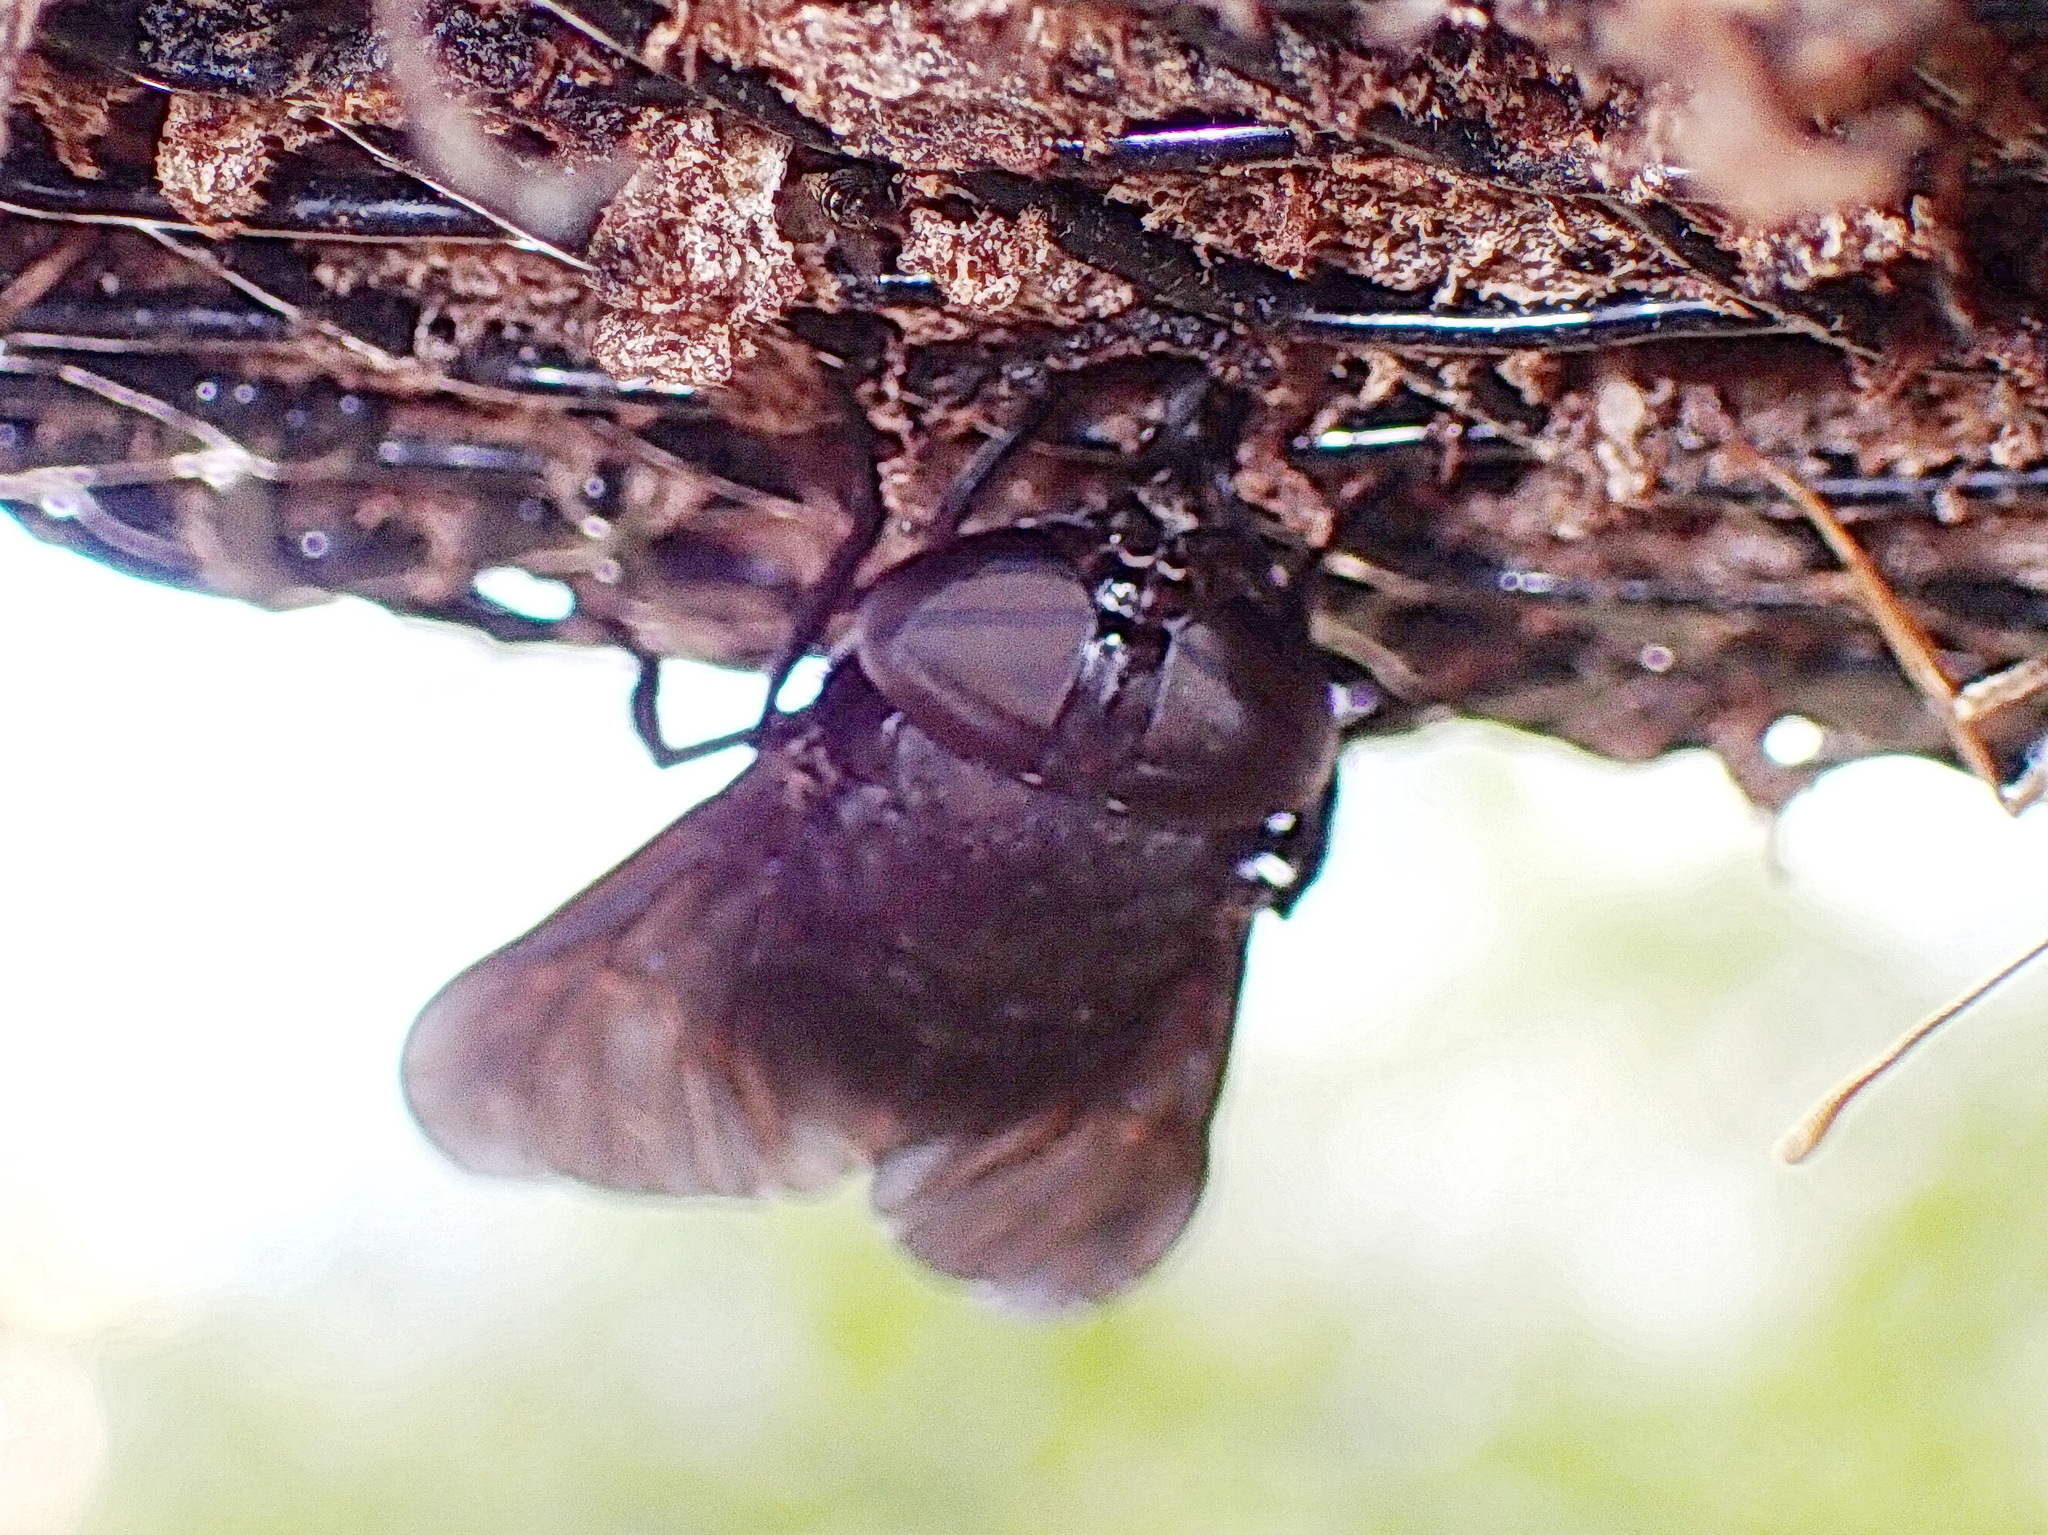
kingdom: Animalia
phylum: Arthropoda
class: Insecta
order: Diptera
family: Tabanidae
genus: Tabanus
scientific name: Tabanus atratus
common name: Black horse fly
